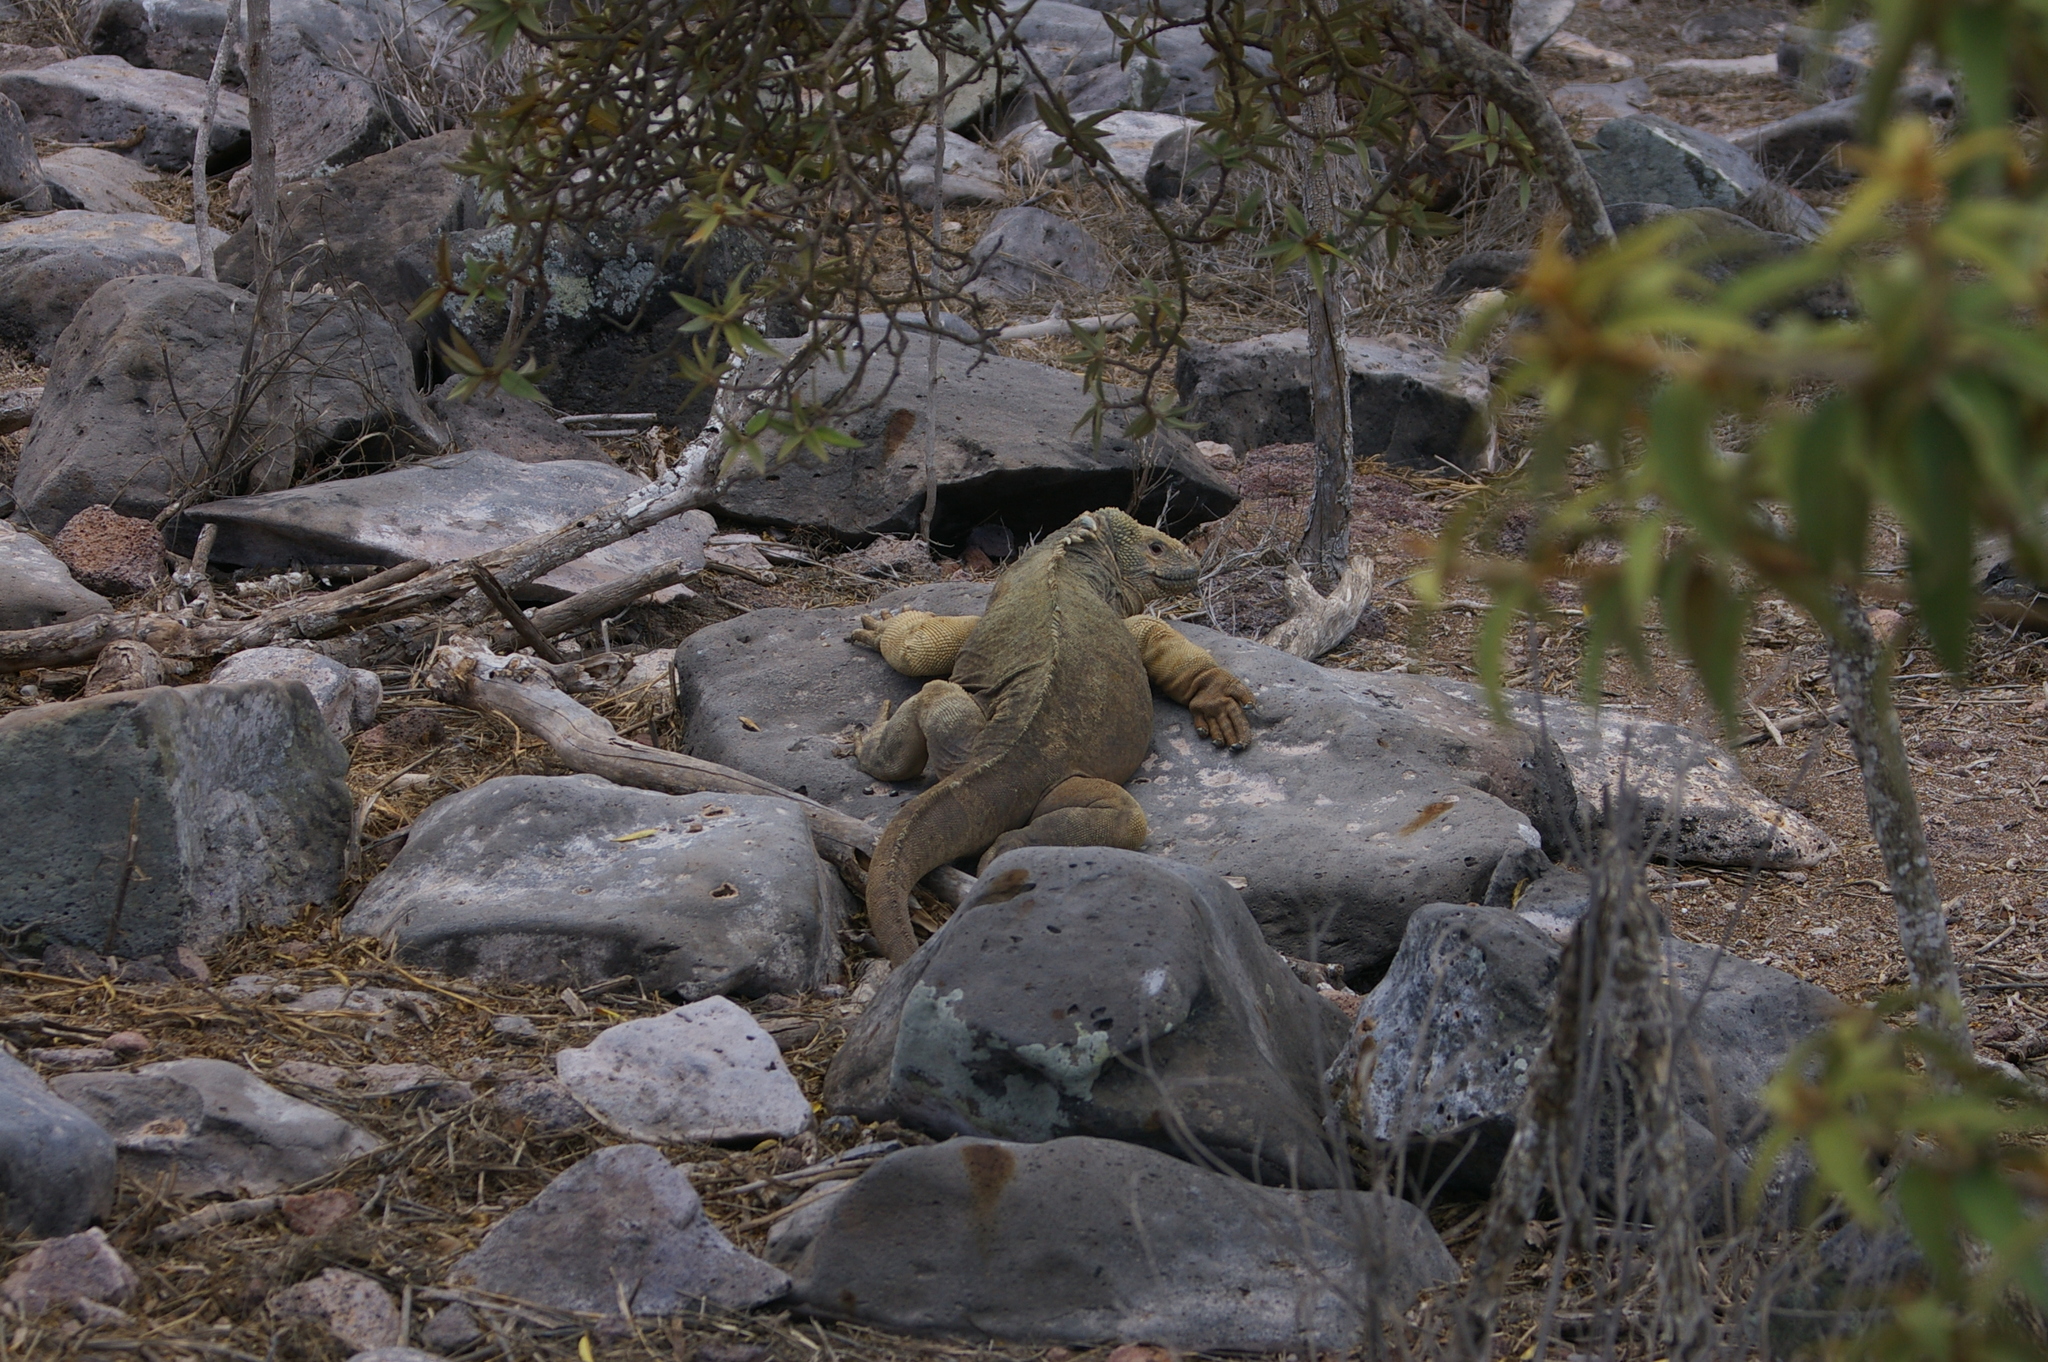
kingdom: Animalia
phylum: Chordata
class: Squamata
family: Iguanidae
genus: Conolophus
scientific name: Conolophus pallidus
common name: Santa fe land iguana
